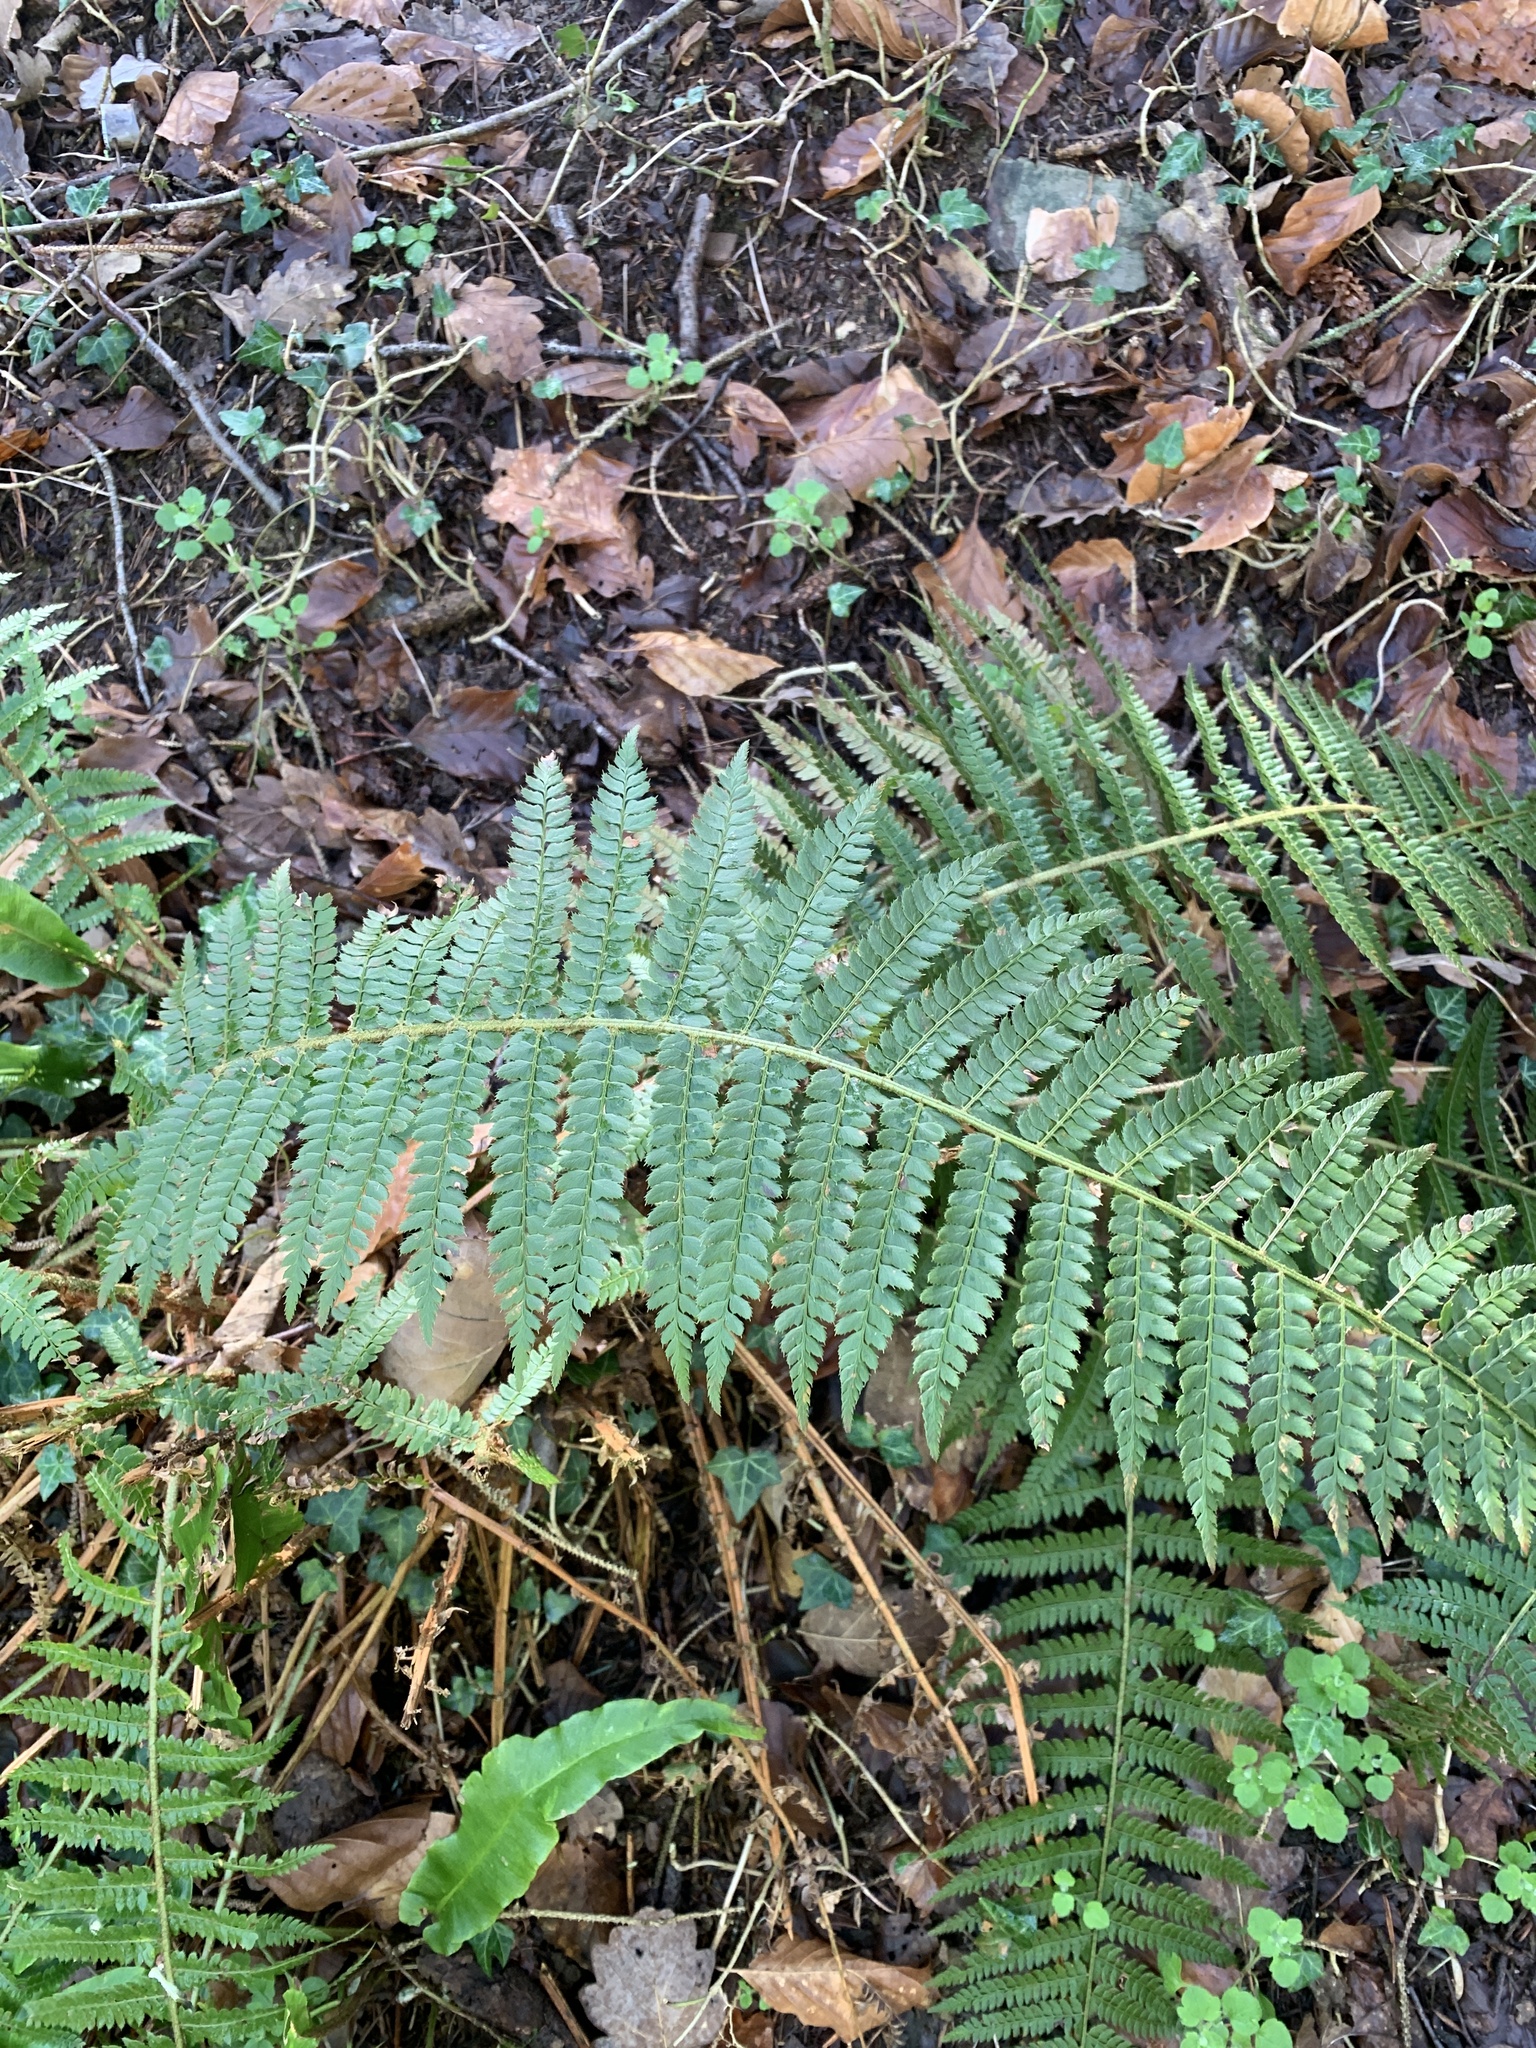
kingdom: Plantae
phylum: Tracheophyta
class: Polypodiopsida
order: Polypodiales
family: Dryopteridaceae
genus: Polystichum
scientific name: Polystichum setiferum
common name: Soft shield-fern
